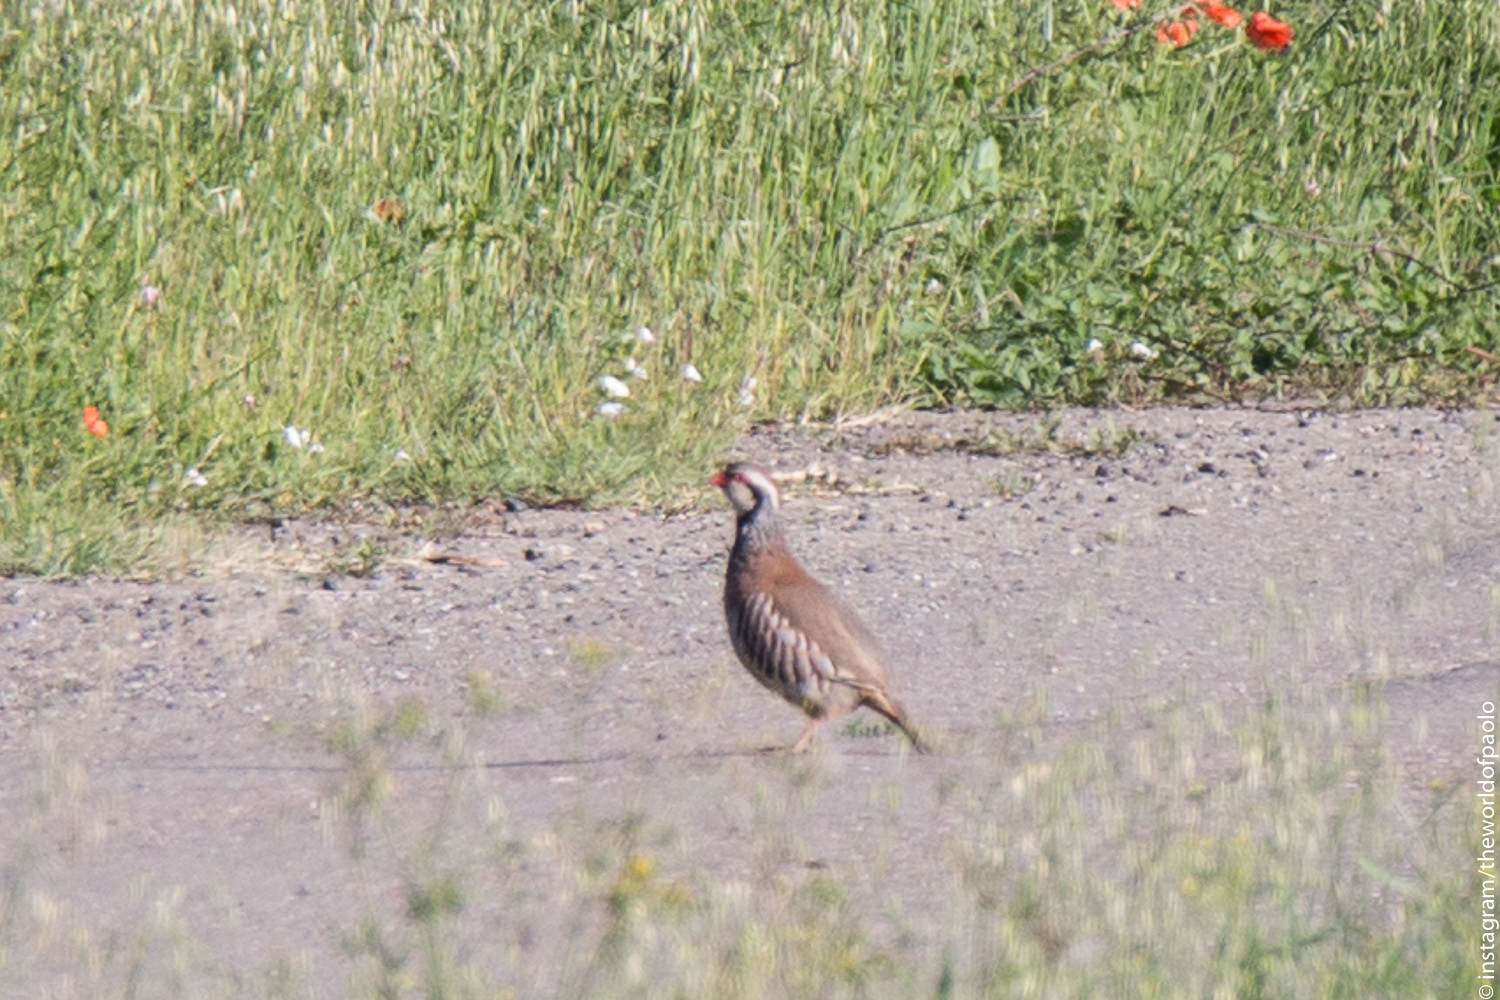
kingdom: Animalia
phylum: Chordata
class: Aves
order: Galliformes
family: Phasianidae
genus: Alectoris
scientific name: Alectoris rufa
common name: Red-legged partridge
